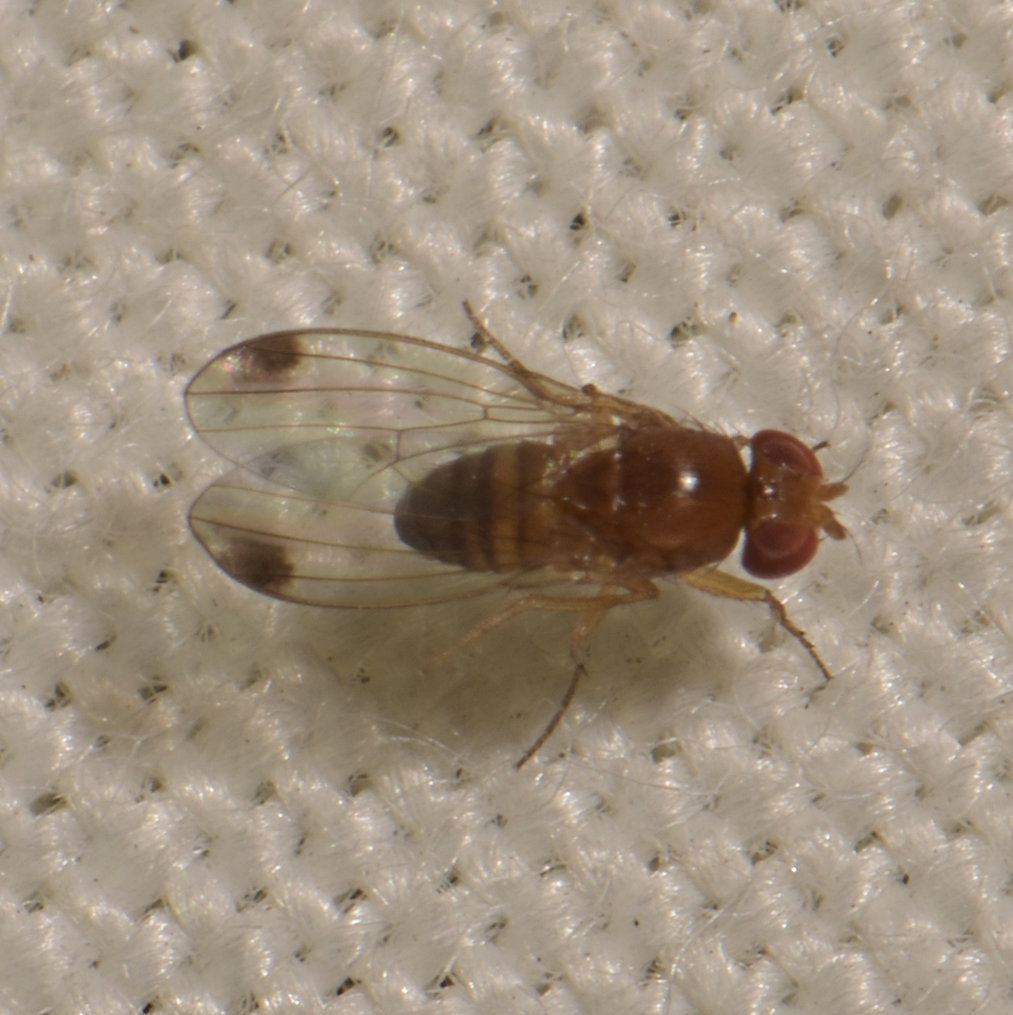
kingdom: Animalia
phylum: Arthropoda
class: Insecta
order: Diptera
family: Drosophilidae
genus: Drosophila
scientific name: Drosophila suzukii
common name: Spotted-wing drosophila
